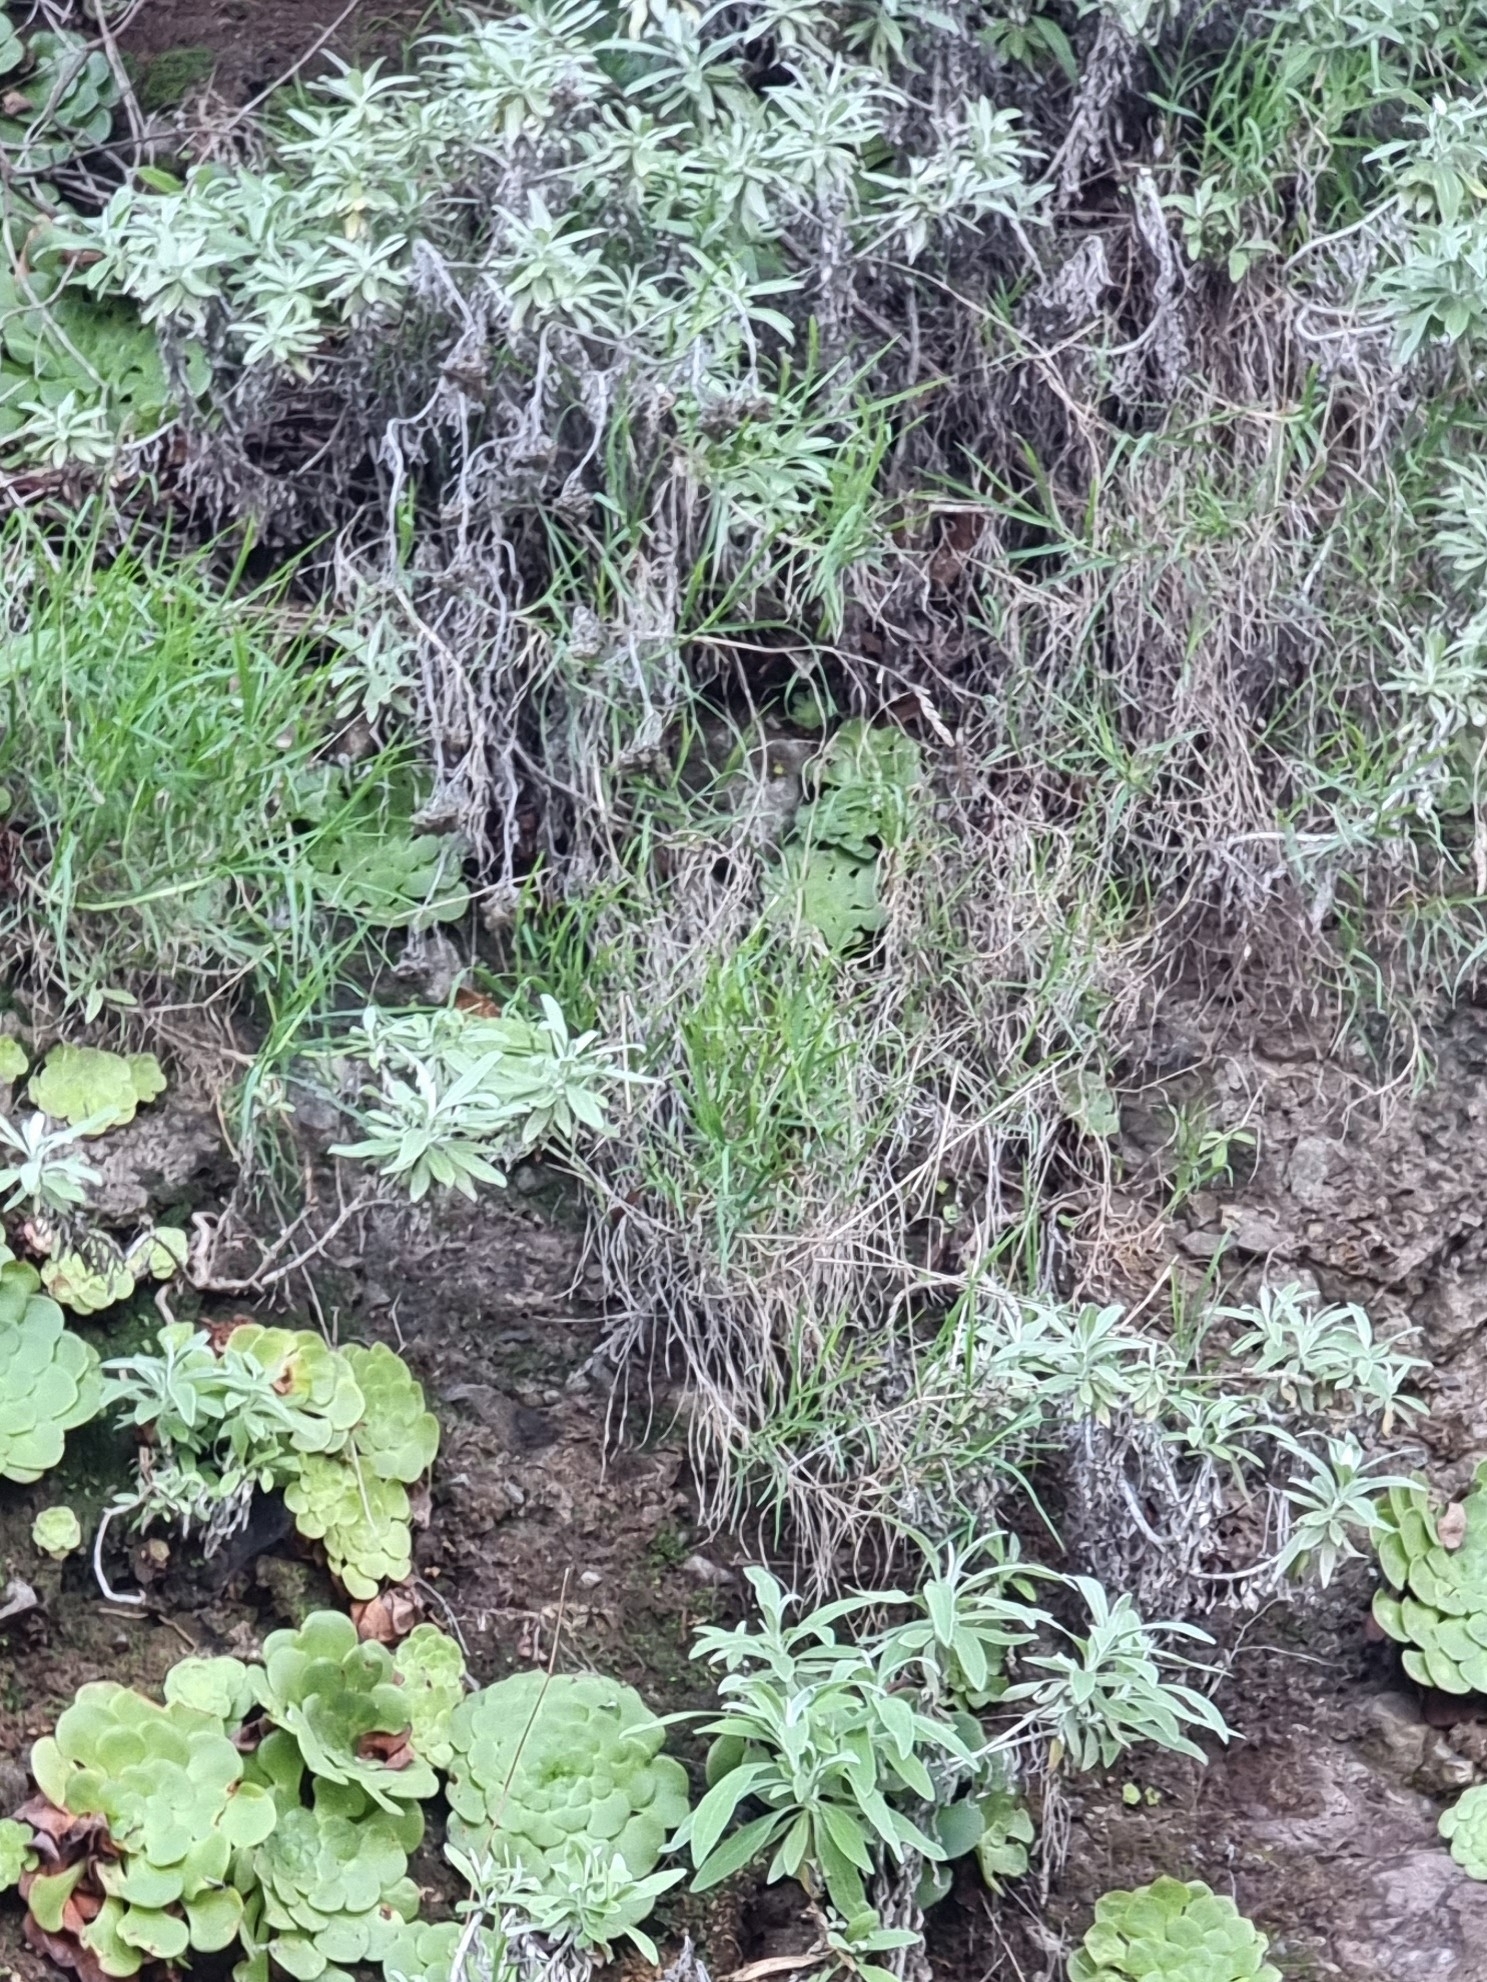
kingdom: Plantae
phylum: Tracheophyta
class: Magnoliopsida
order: Asterales
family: Asteraceae
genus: Helichrysum
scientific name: Helichrysum melaleucum
